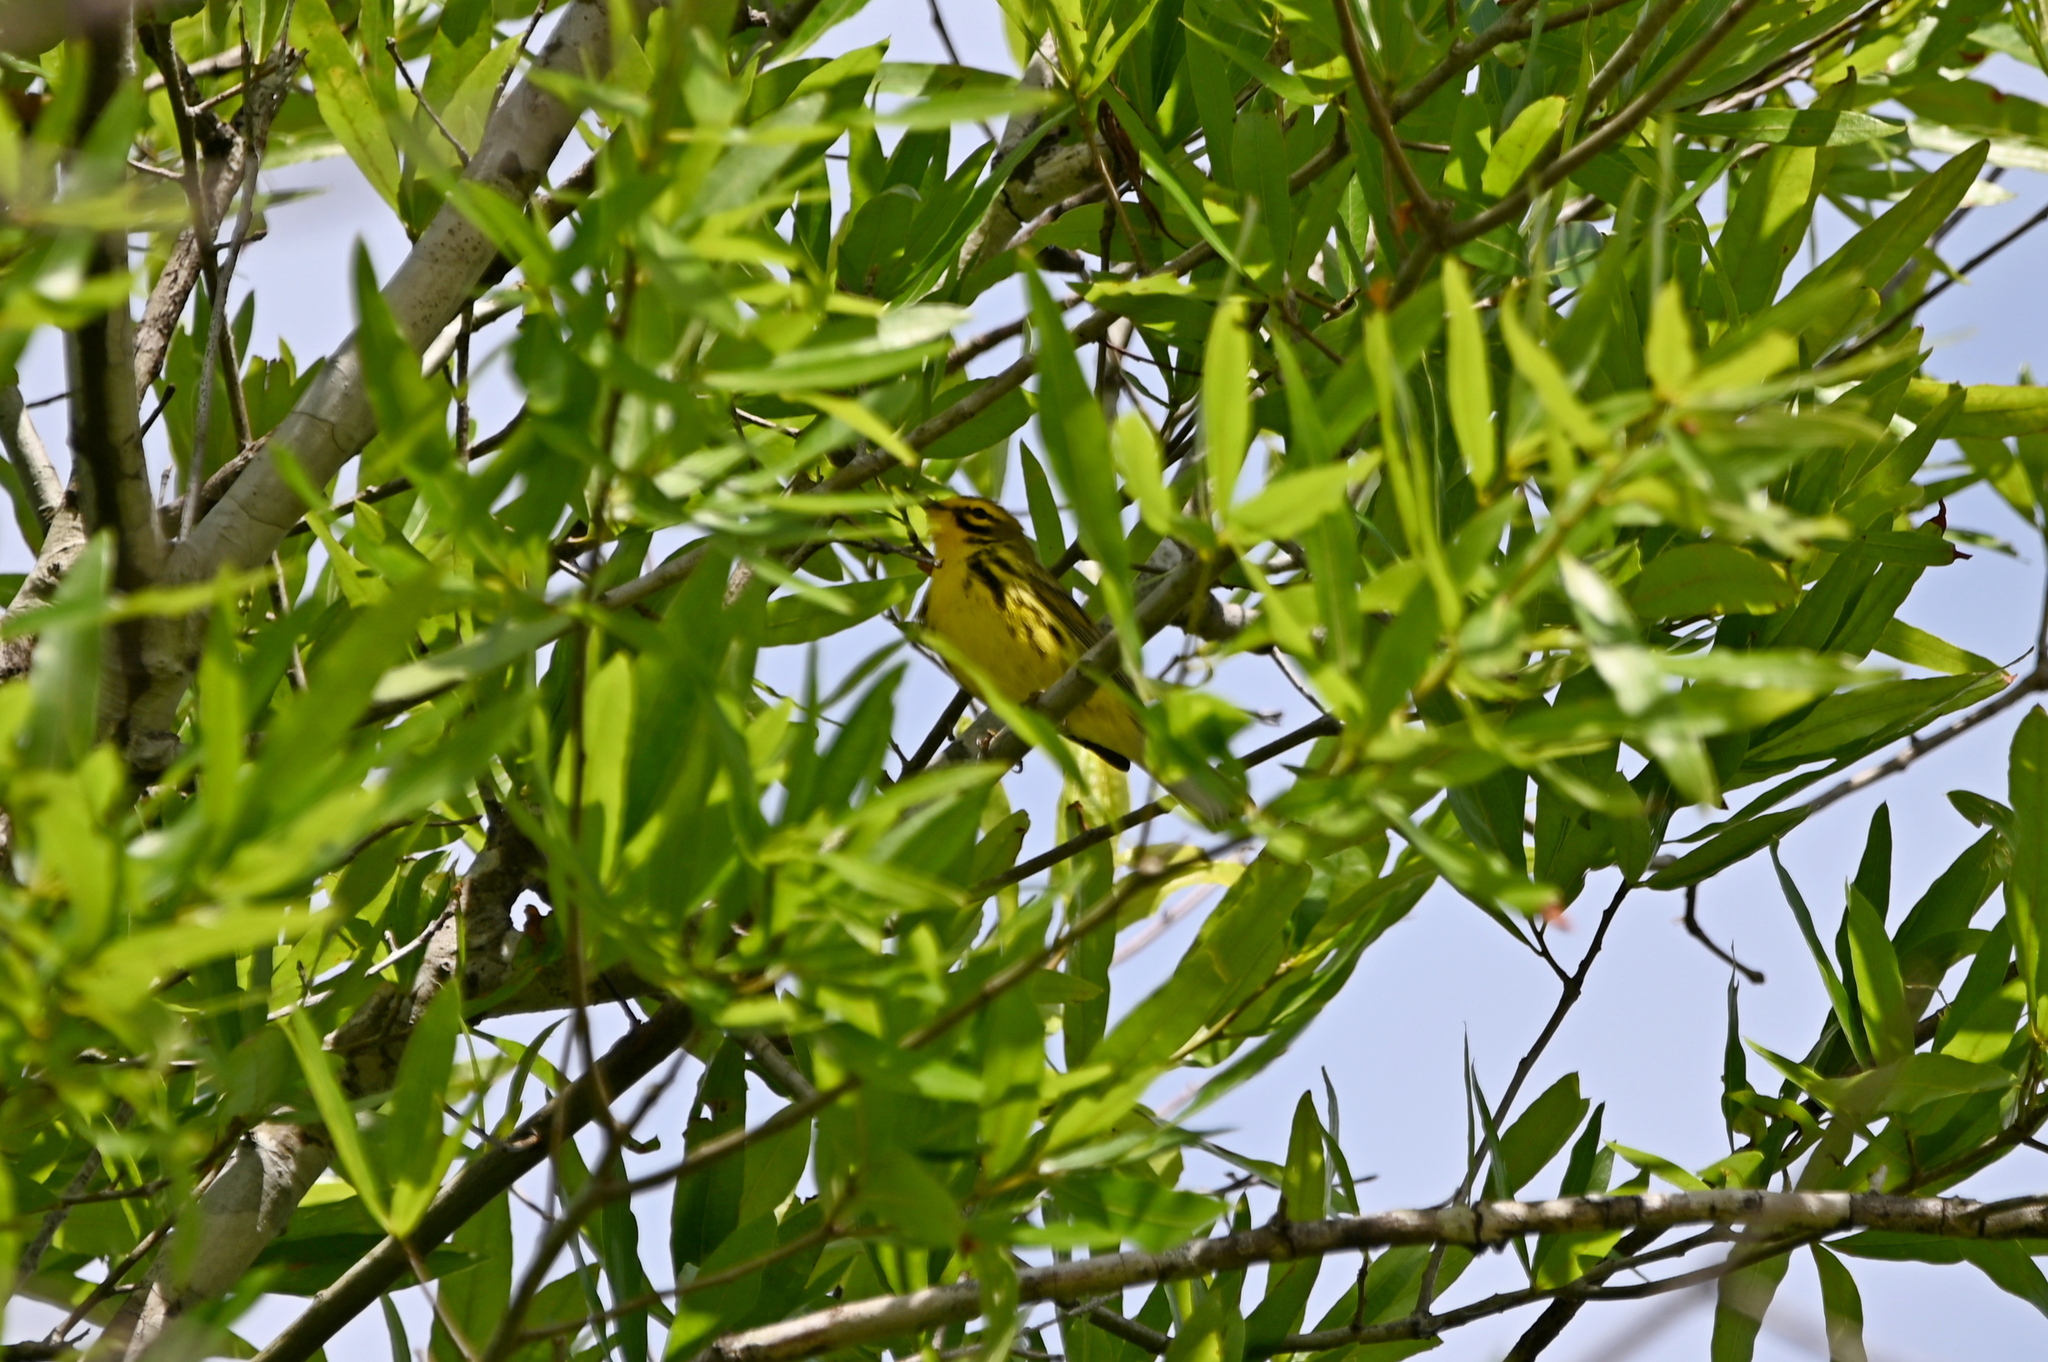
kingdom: Animalia
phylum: Chordata
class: Aves
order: Passeriformes
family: Parulidae
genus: Setophaga
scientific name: Setophaga discolor
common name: Prairie warbler
